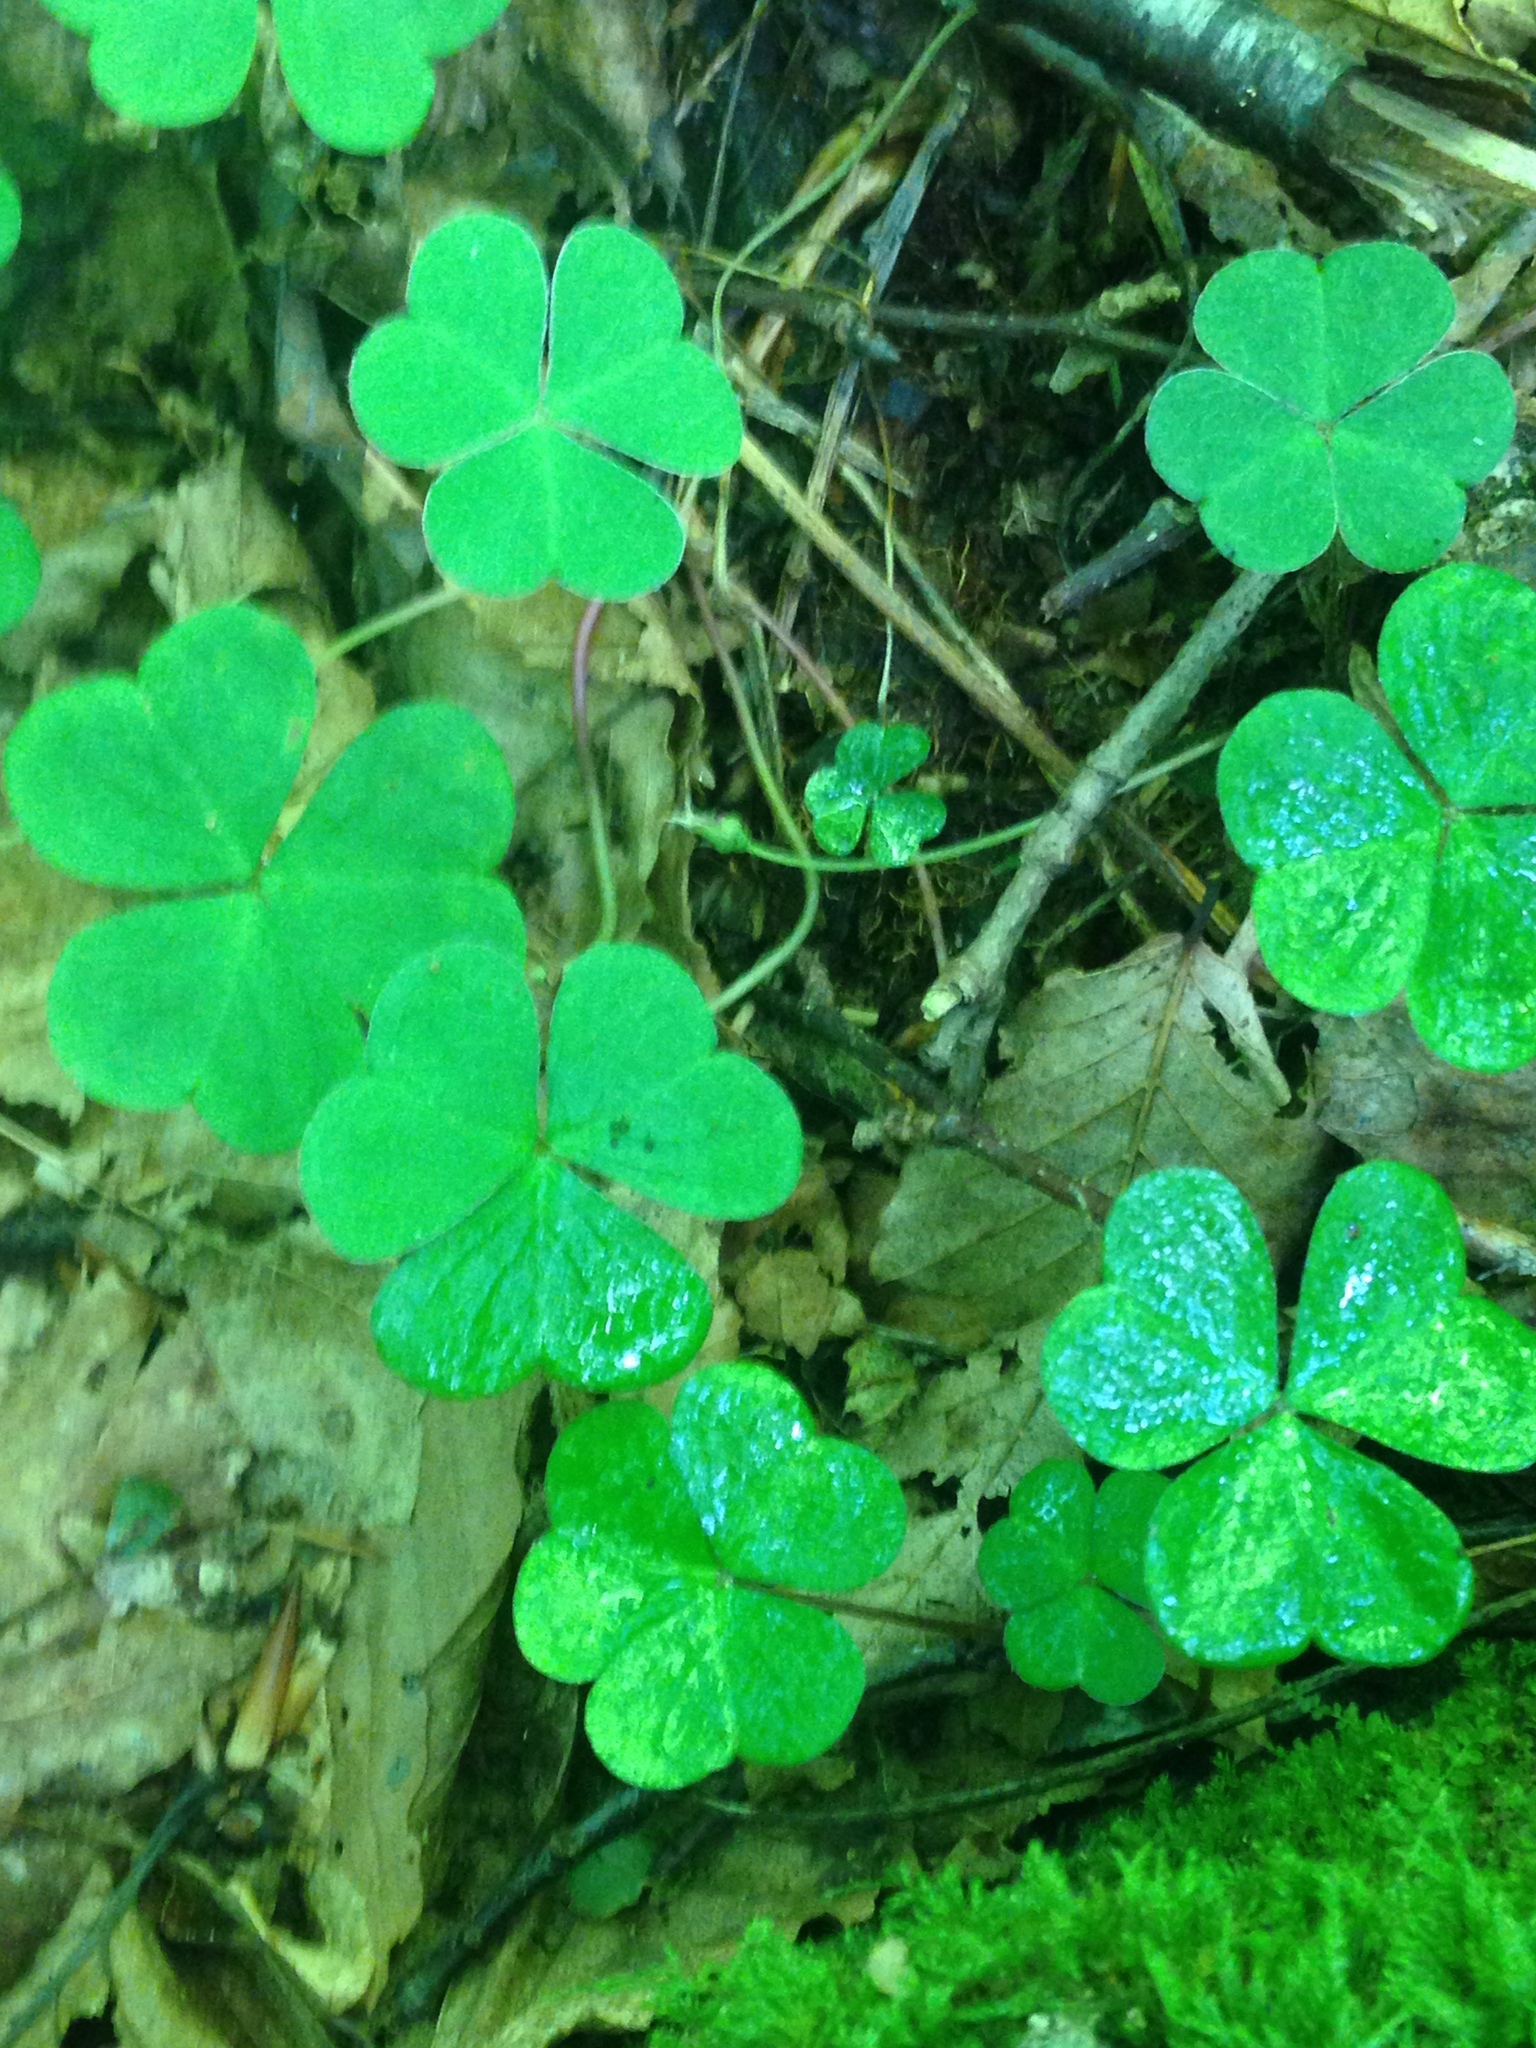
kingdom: Plantae
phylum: Tracheophyta
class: Magnoliopsida
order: Oxalidales
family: Oxalidaceae
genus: Oxalis
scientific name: Oxalis montana
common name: American wood-sorrel
